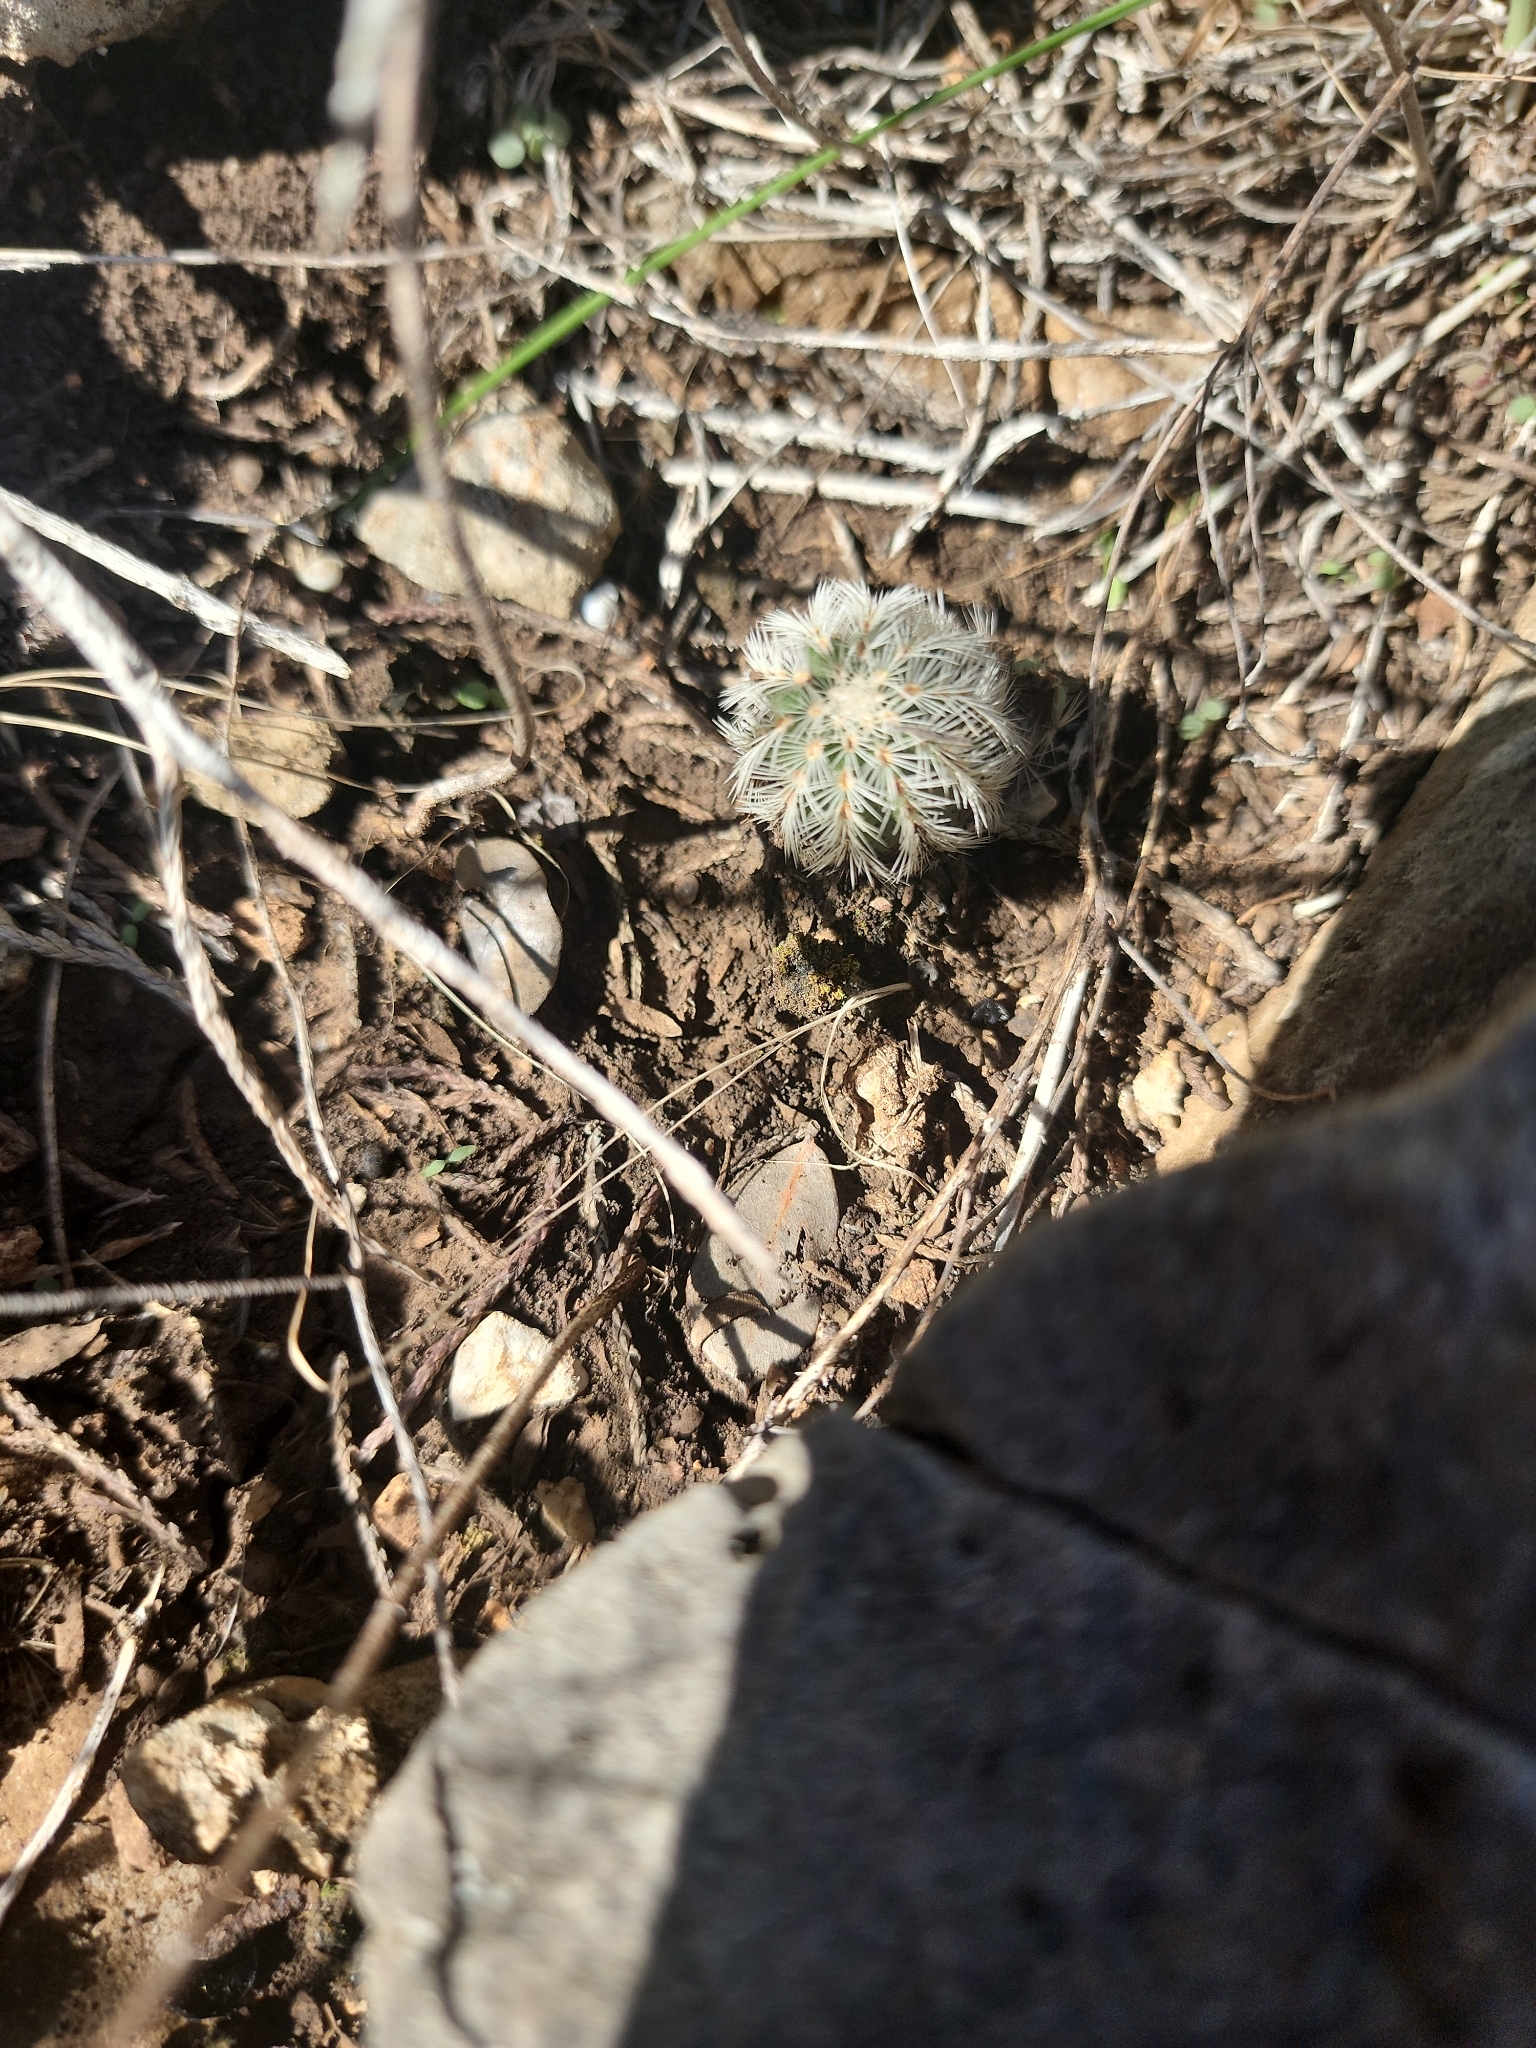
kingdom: Plantae
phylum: Tracheophyta
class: Magnoliopsida
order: Caryophyllales
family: Cactaceae
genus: Echinocereus
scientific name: Echinocereus reichenbachii
